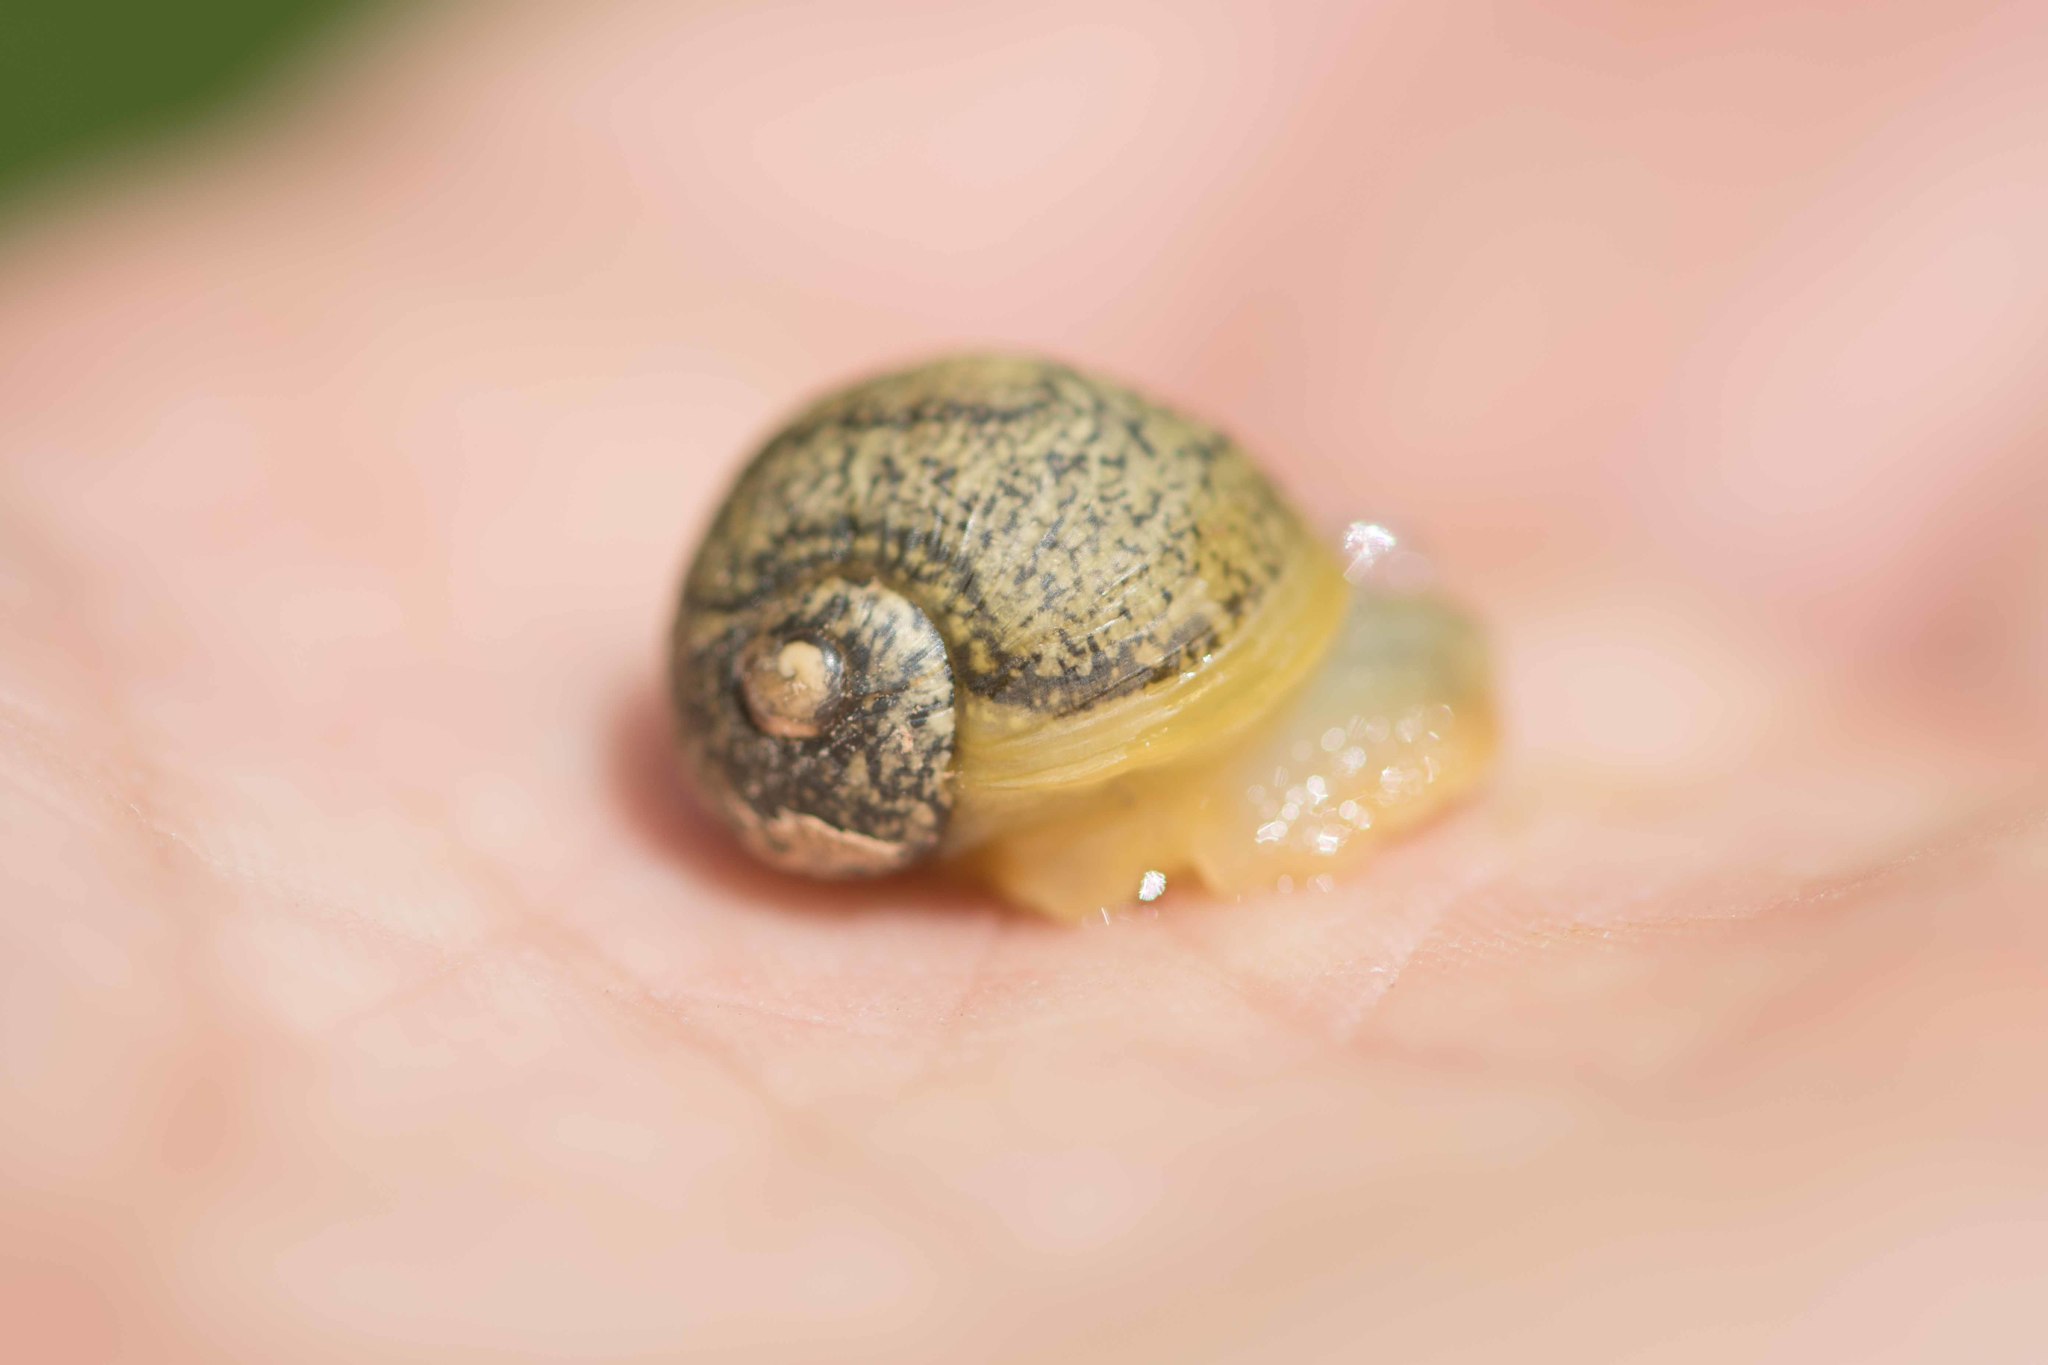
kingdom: Animalia
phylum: Mollusca
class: Gastropoda
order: Stylommatophora
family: Helicidae
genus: Cantareus
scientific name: Cantareus apertus
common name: Green gardensnail
